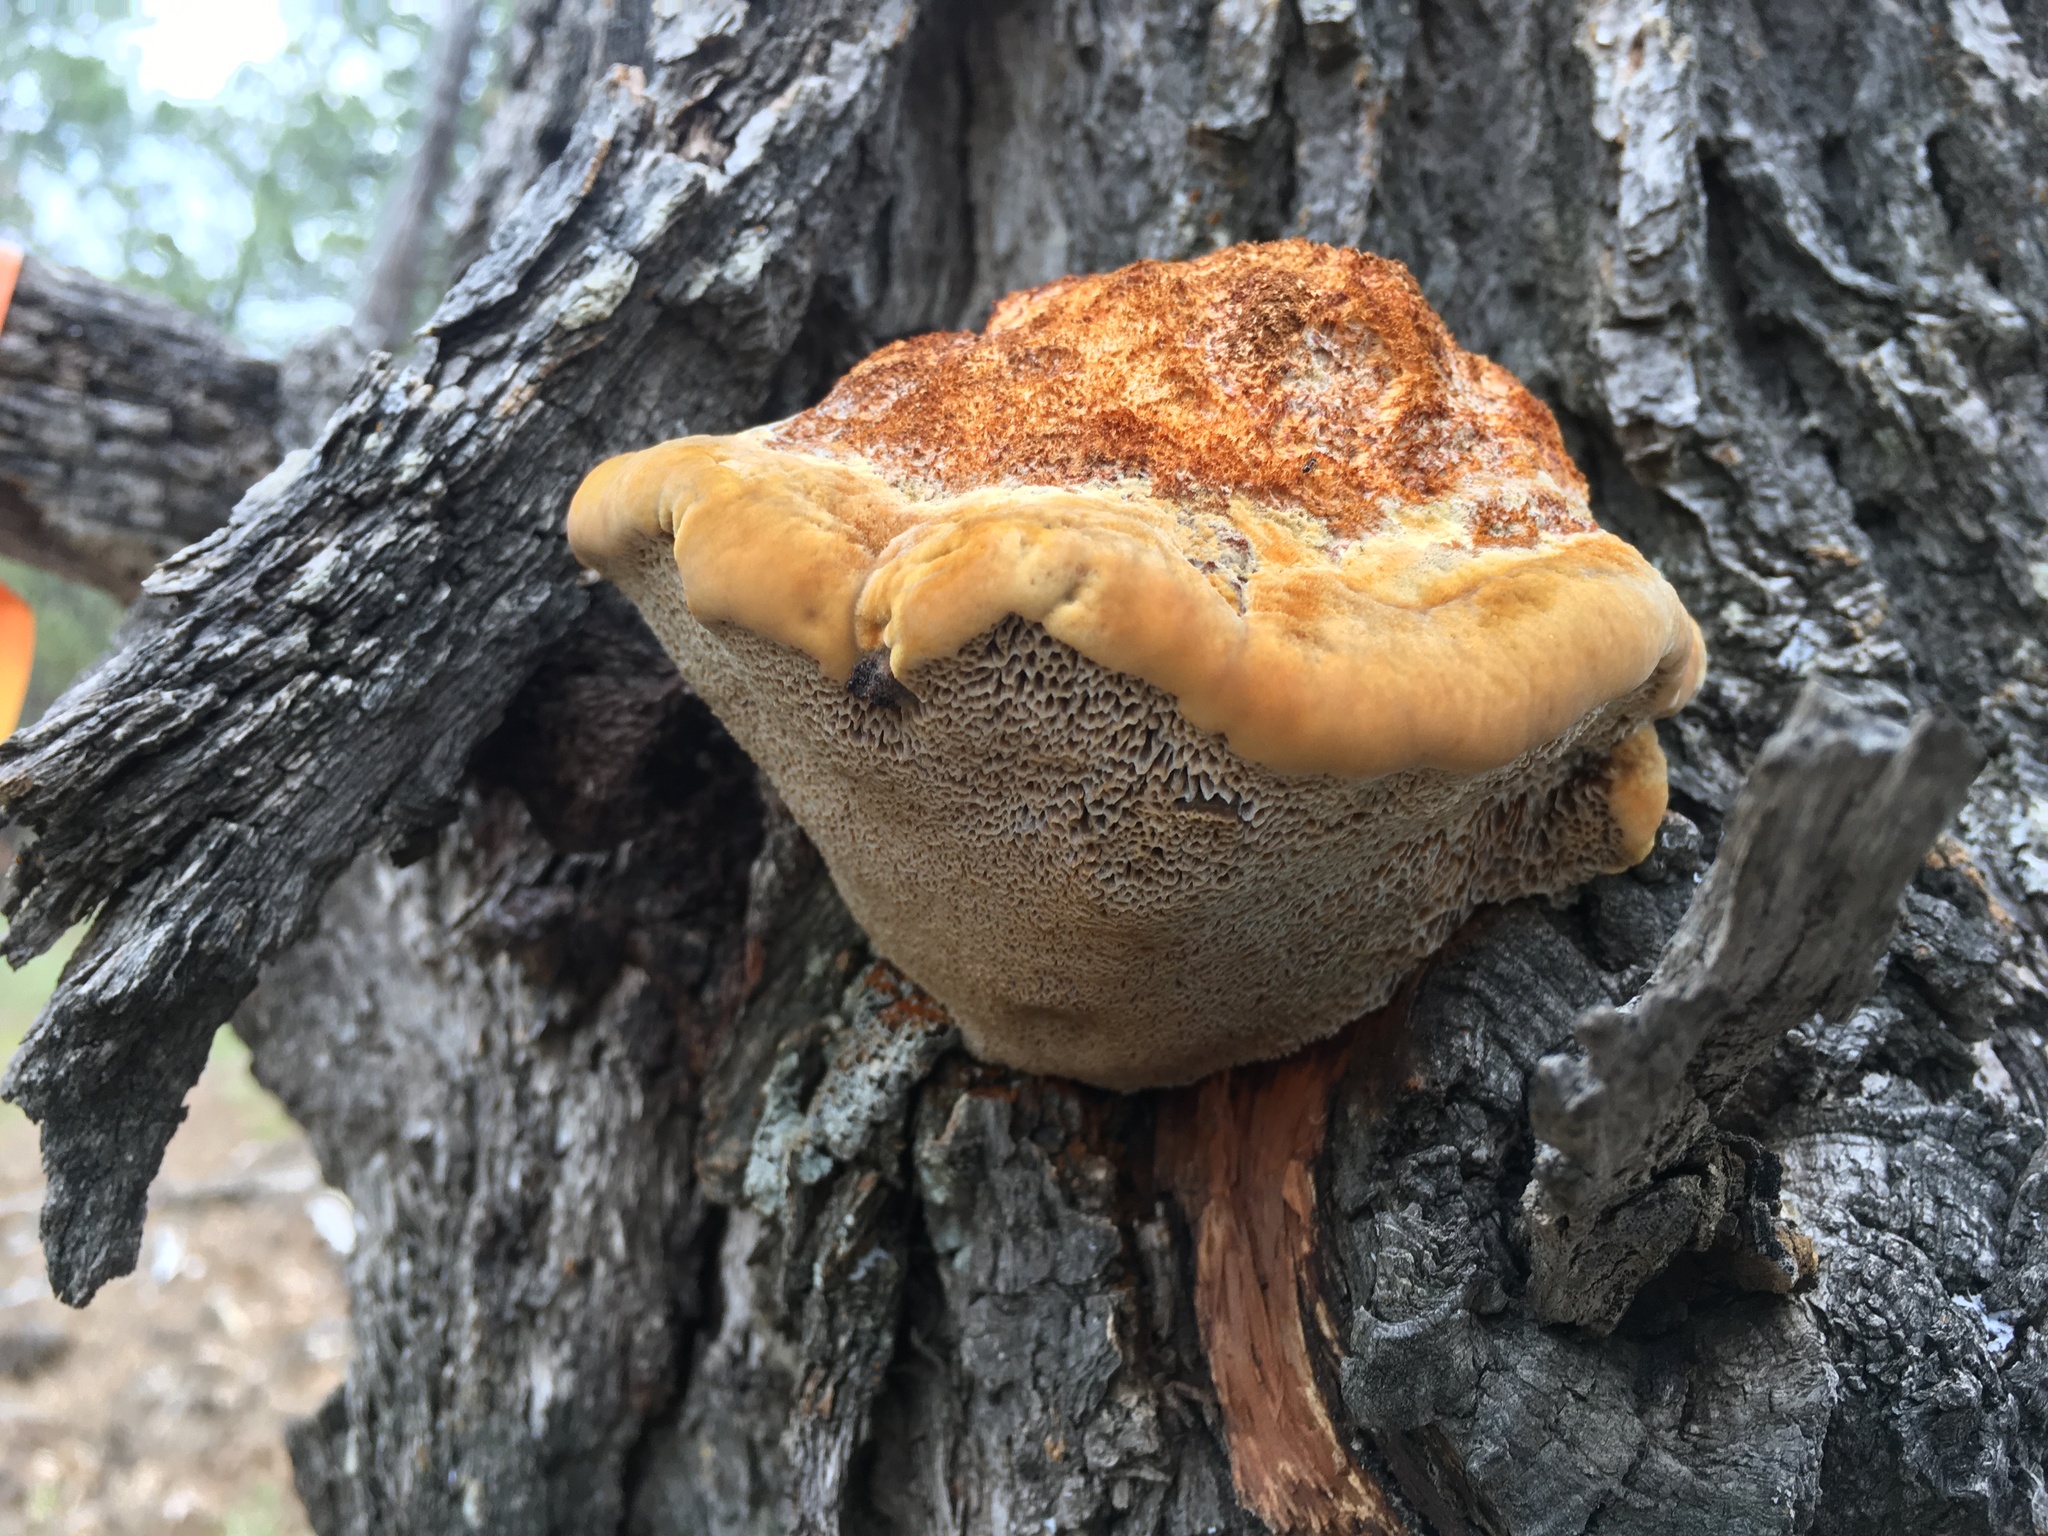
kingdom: Fungi
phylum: Basidiomycota
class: Agaricomycetes
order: Hymenochaetales
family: Hymenochaetaceae
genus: Inocutis
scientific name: Inocutis dryophila
